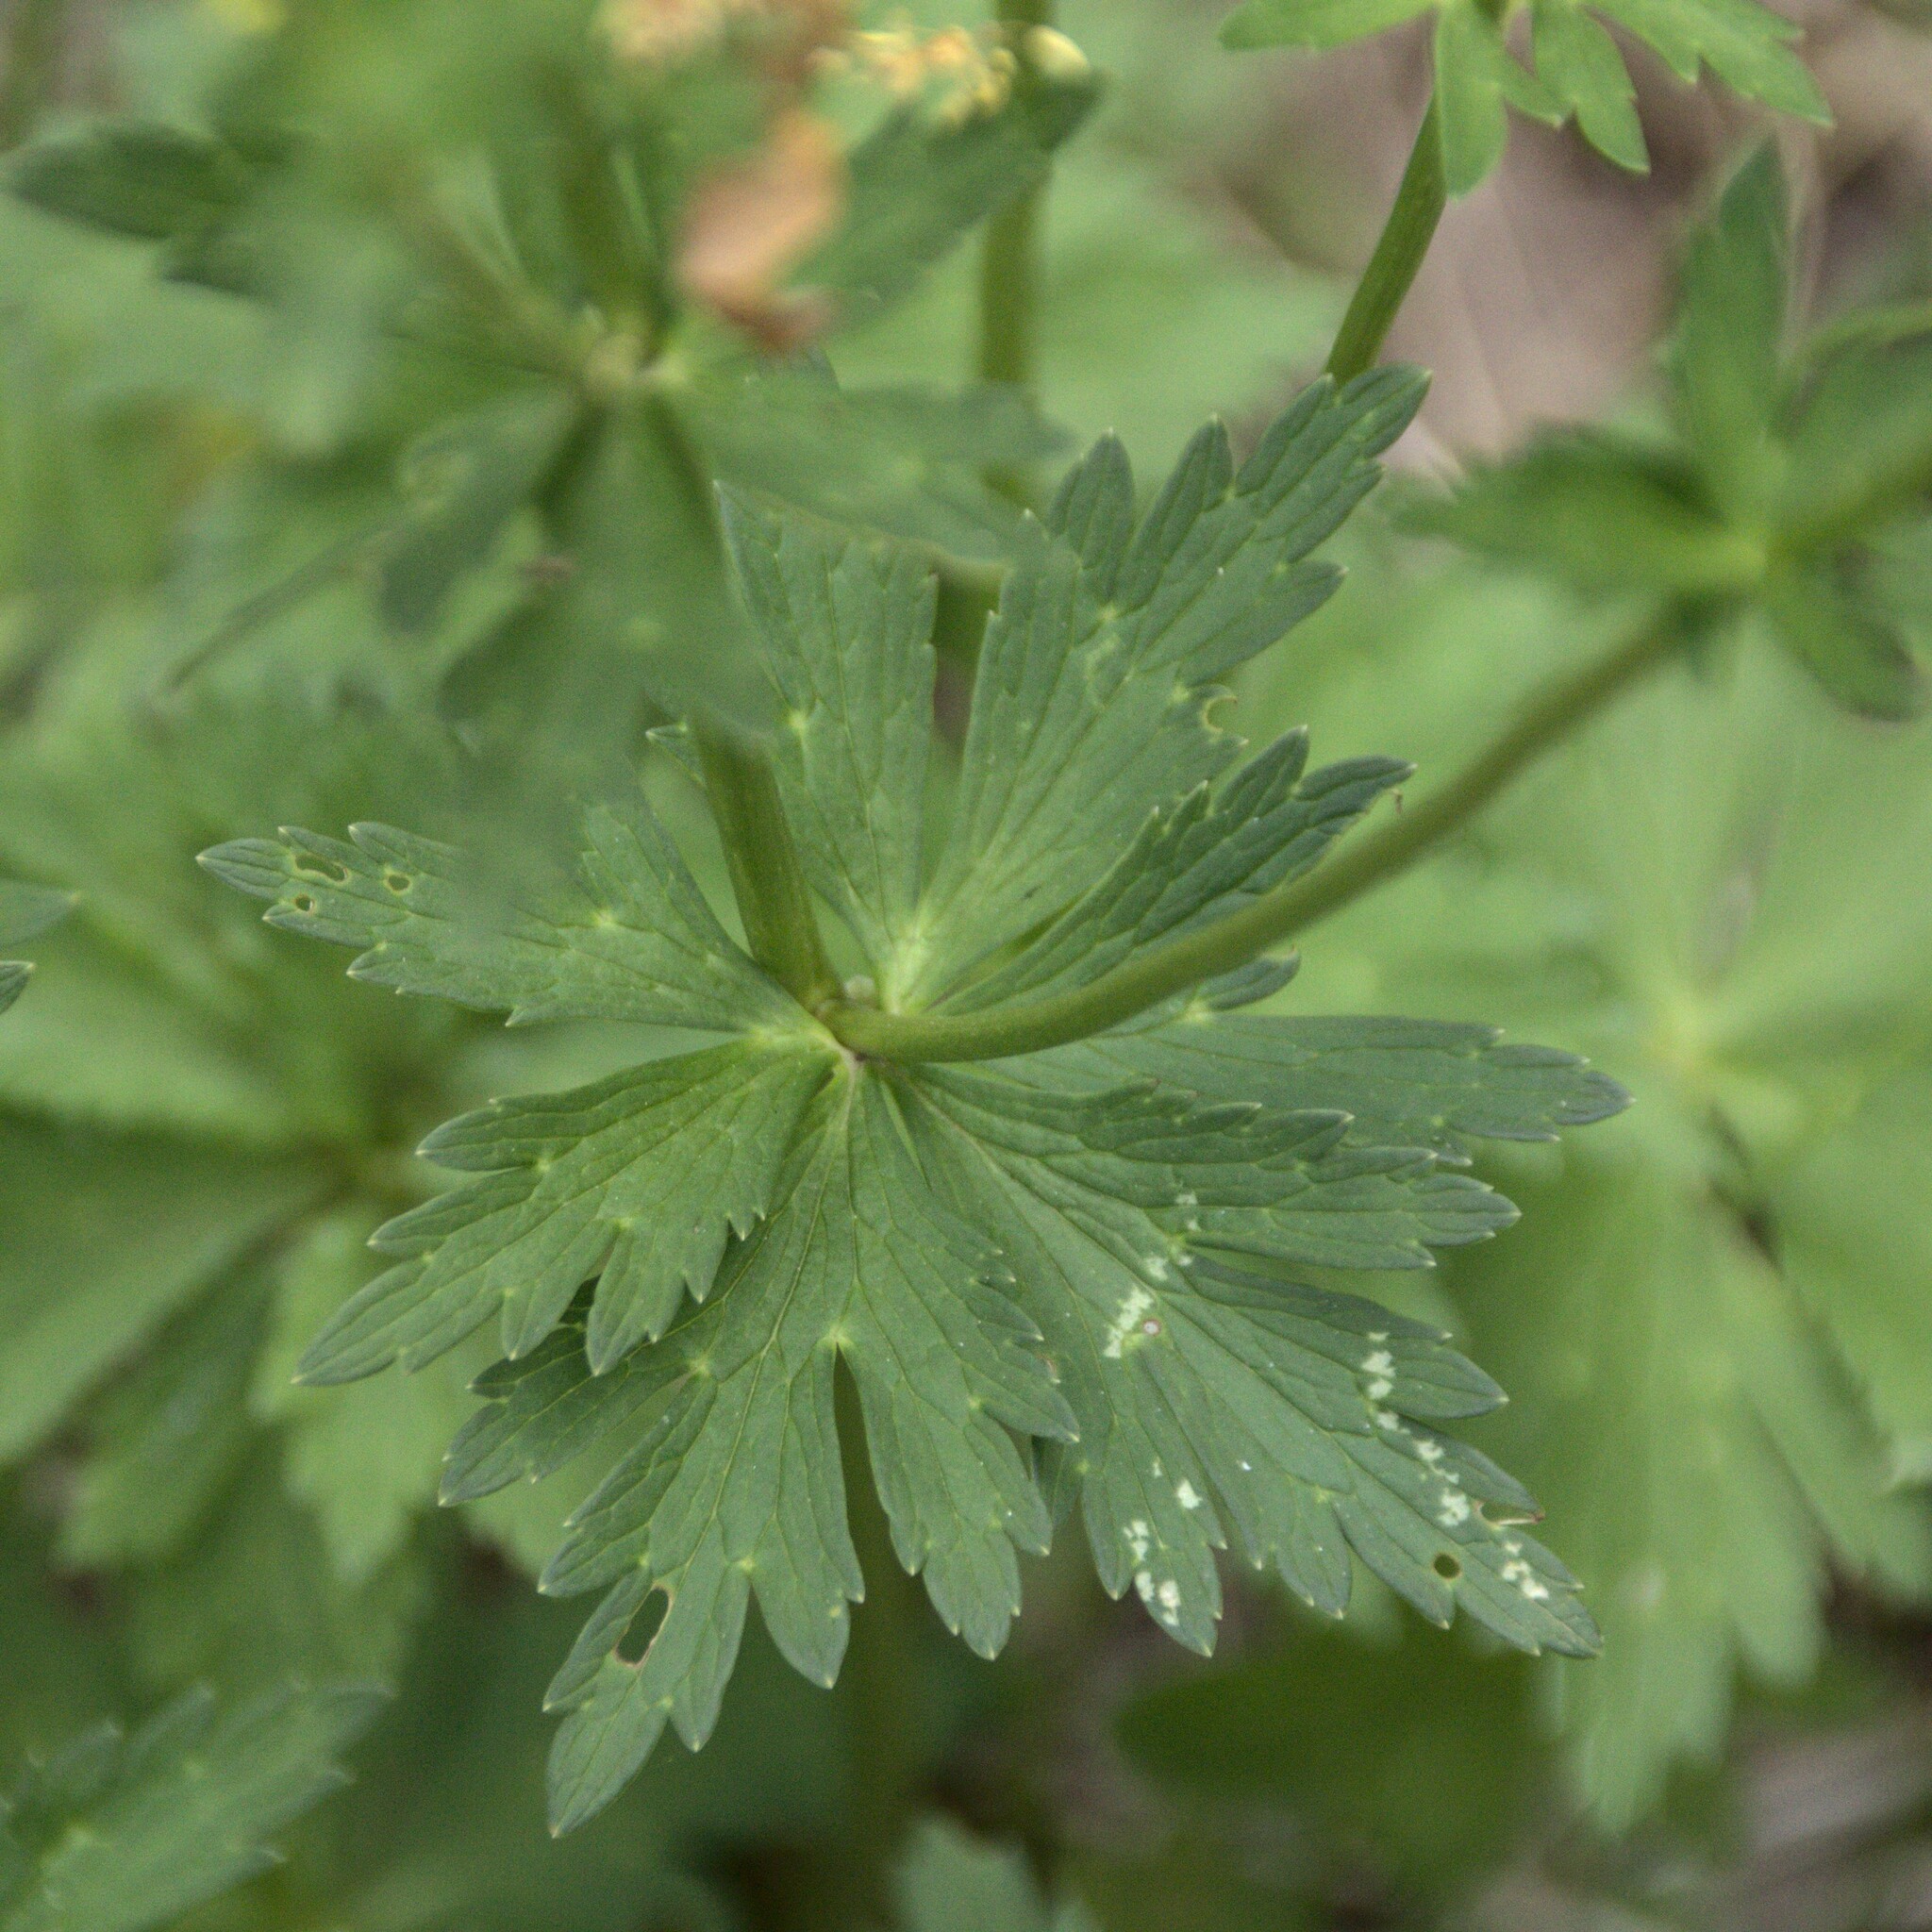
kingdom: Plantae
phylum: Tracheophyta
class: Magnoliopsida
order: Ranunculales
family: Ranunculaceae
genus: Trollius
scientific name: Trollius europaeus
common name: European globeflower
